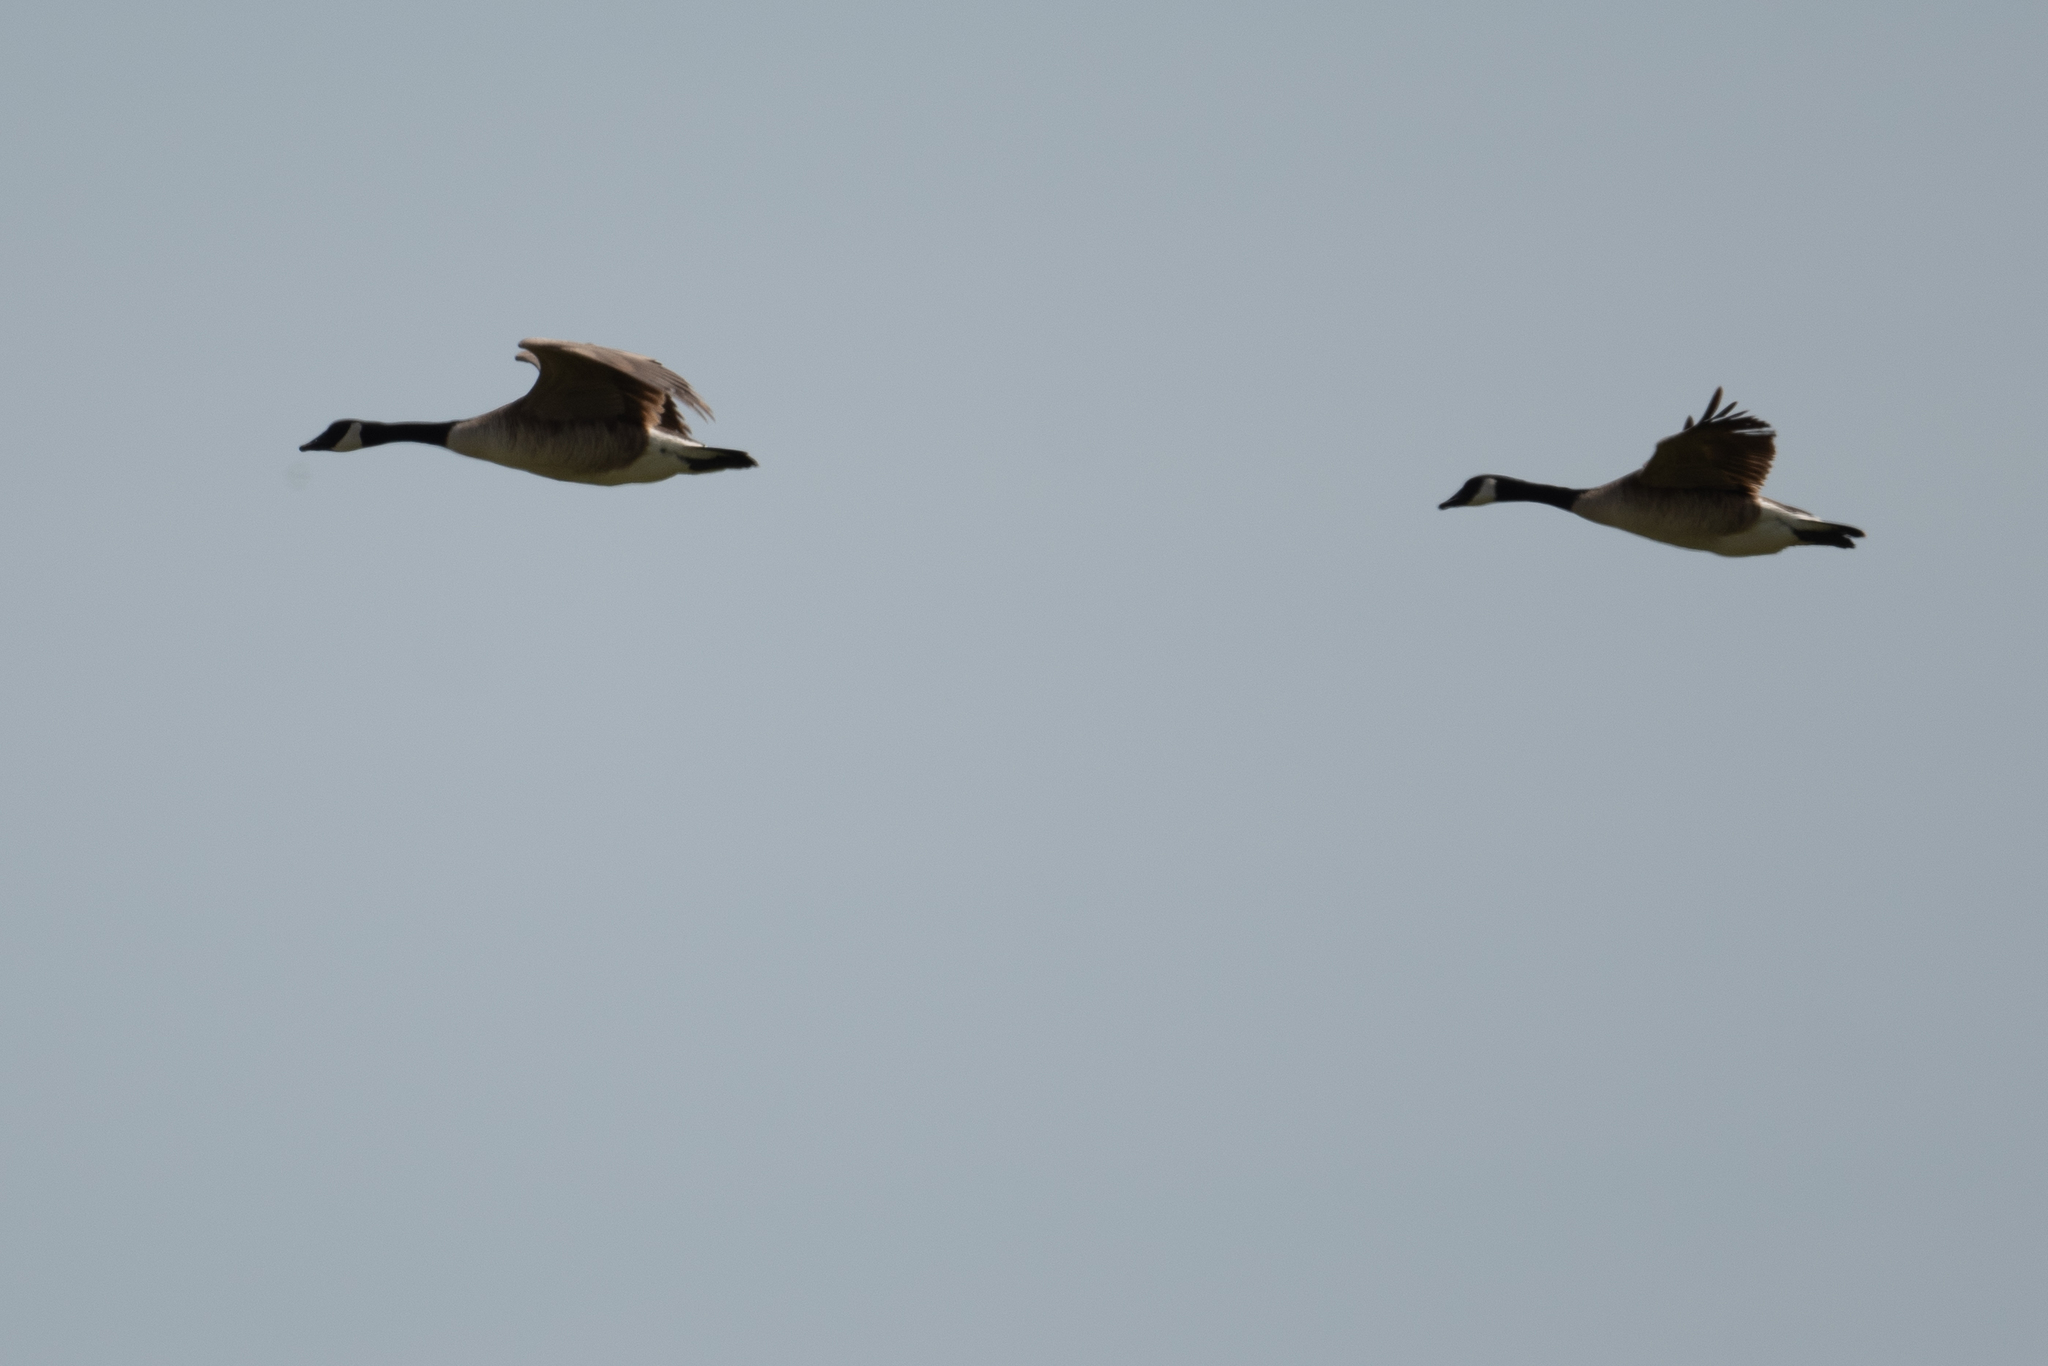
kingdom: Animalia
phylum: Chordata
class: Aves
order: Anseriformes
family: Anatidae
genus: Branta
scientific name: Branta canadensis
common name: Canada goose
